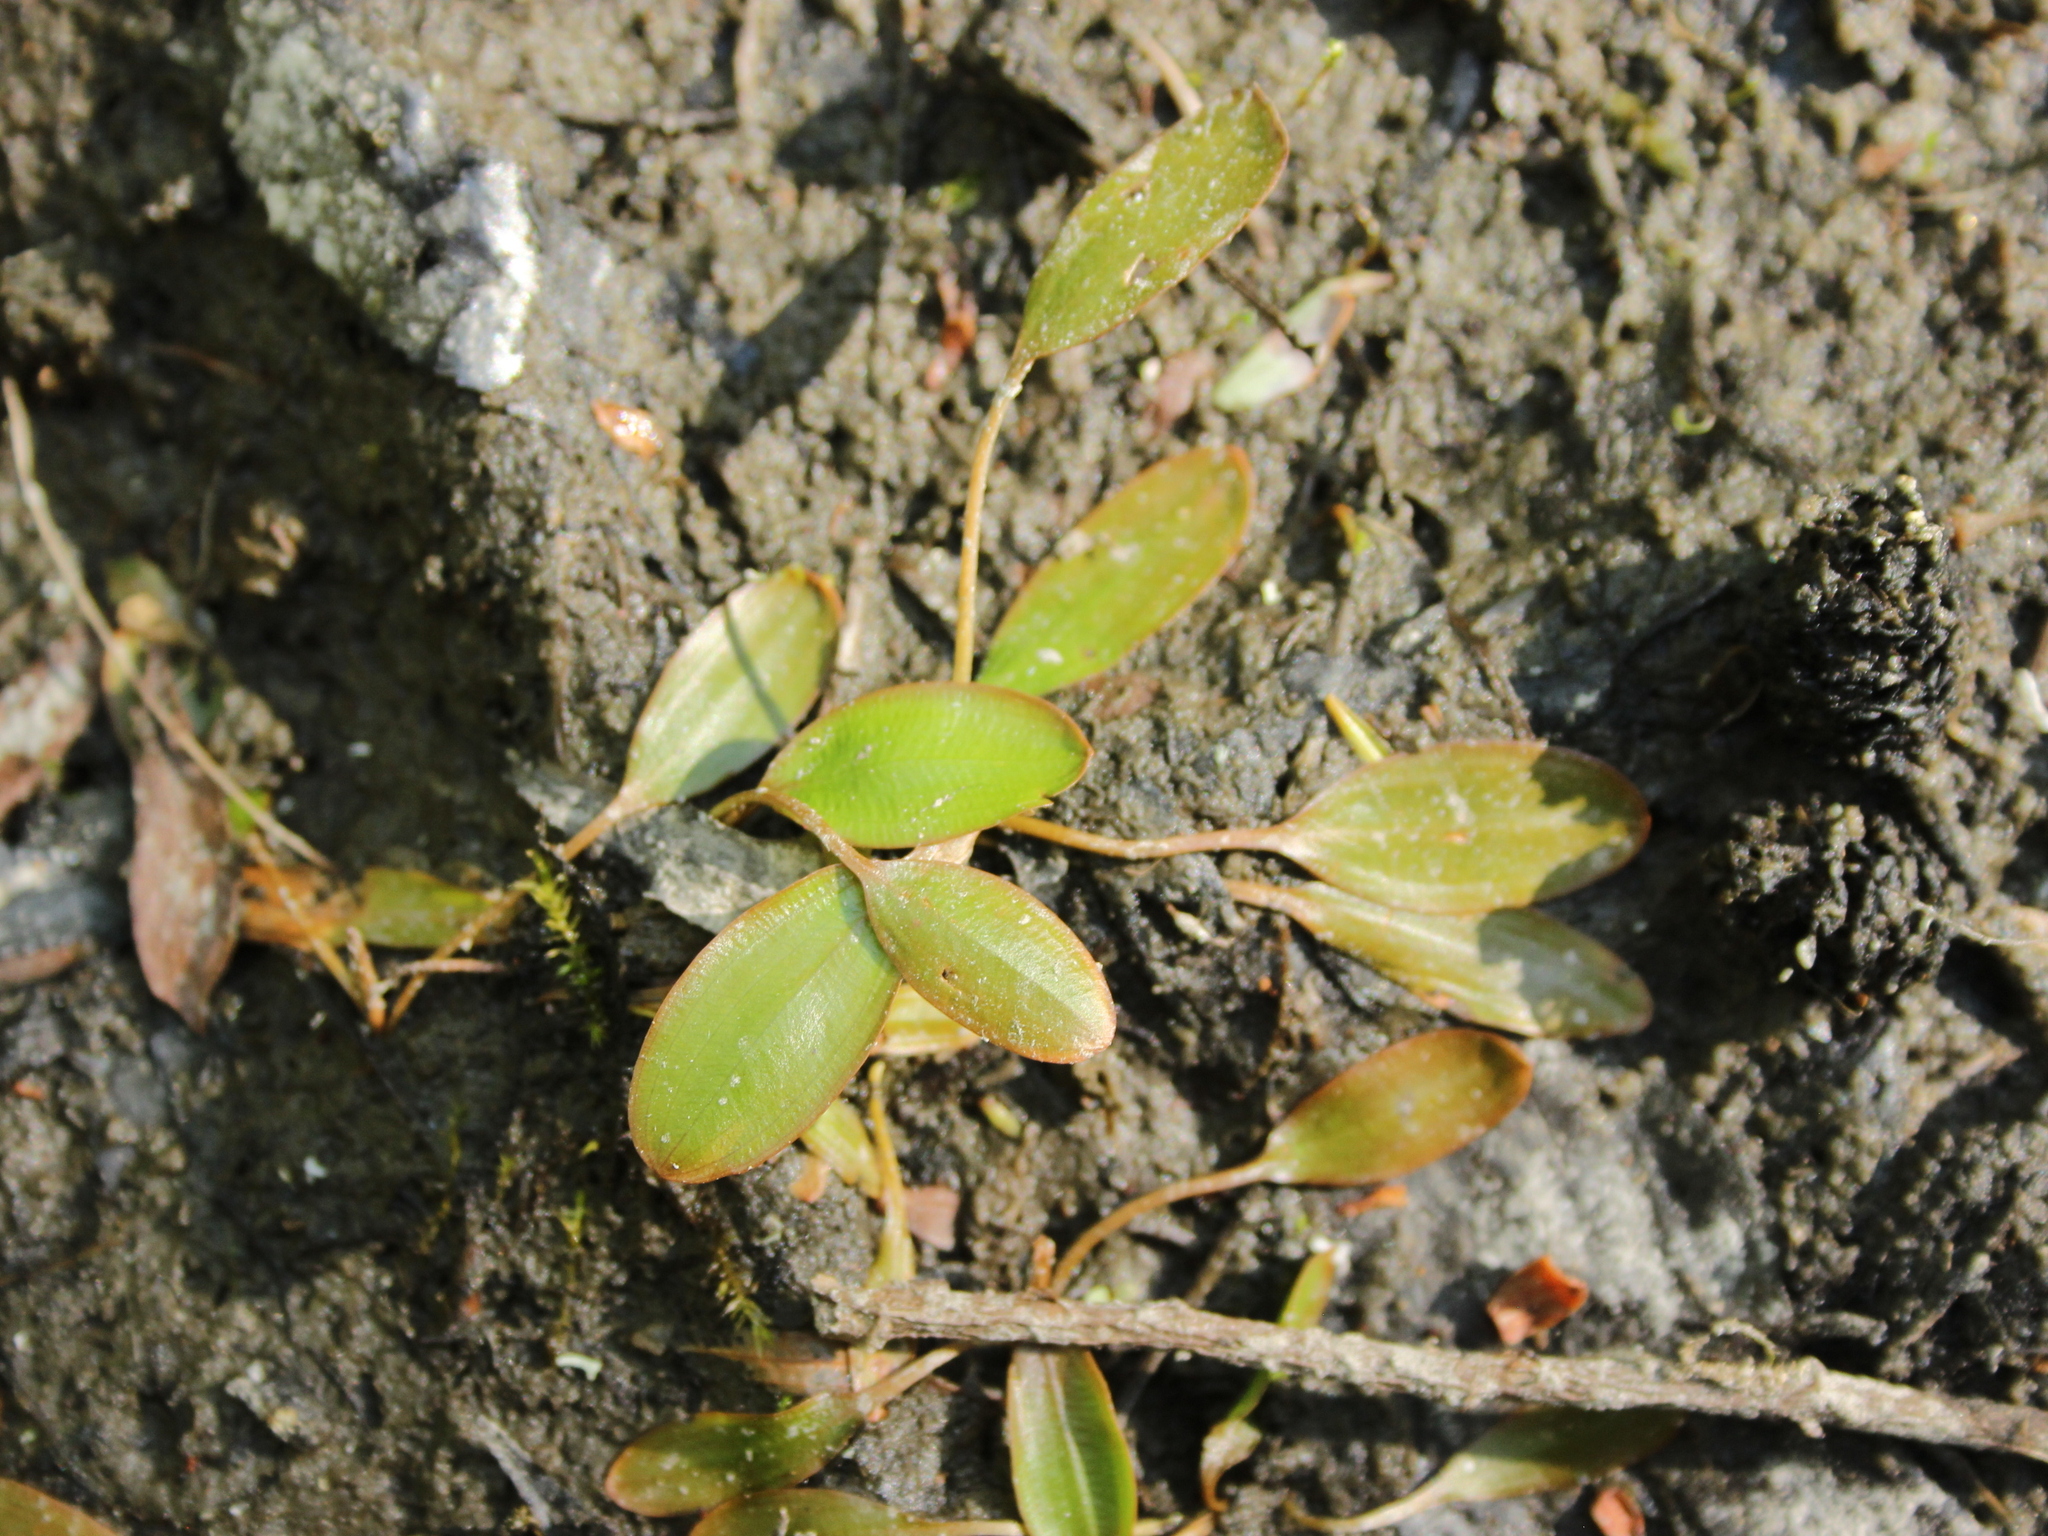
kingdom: Plantae
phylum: Tracheophyta
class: Liliopsida
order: Alismatales
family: Potamogetonaceae
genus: Potamogeton
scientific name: Potamogeton cheesemanii
